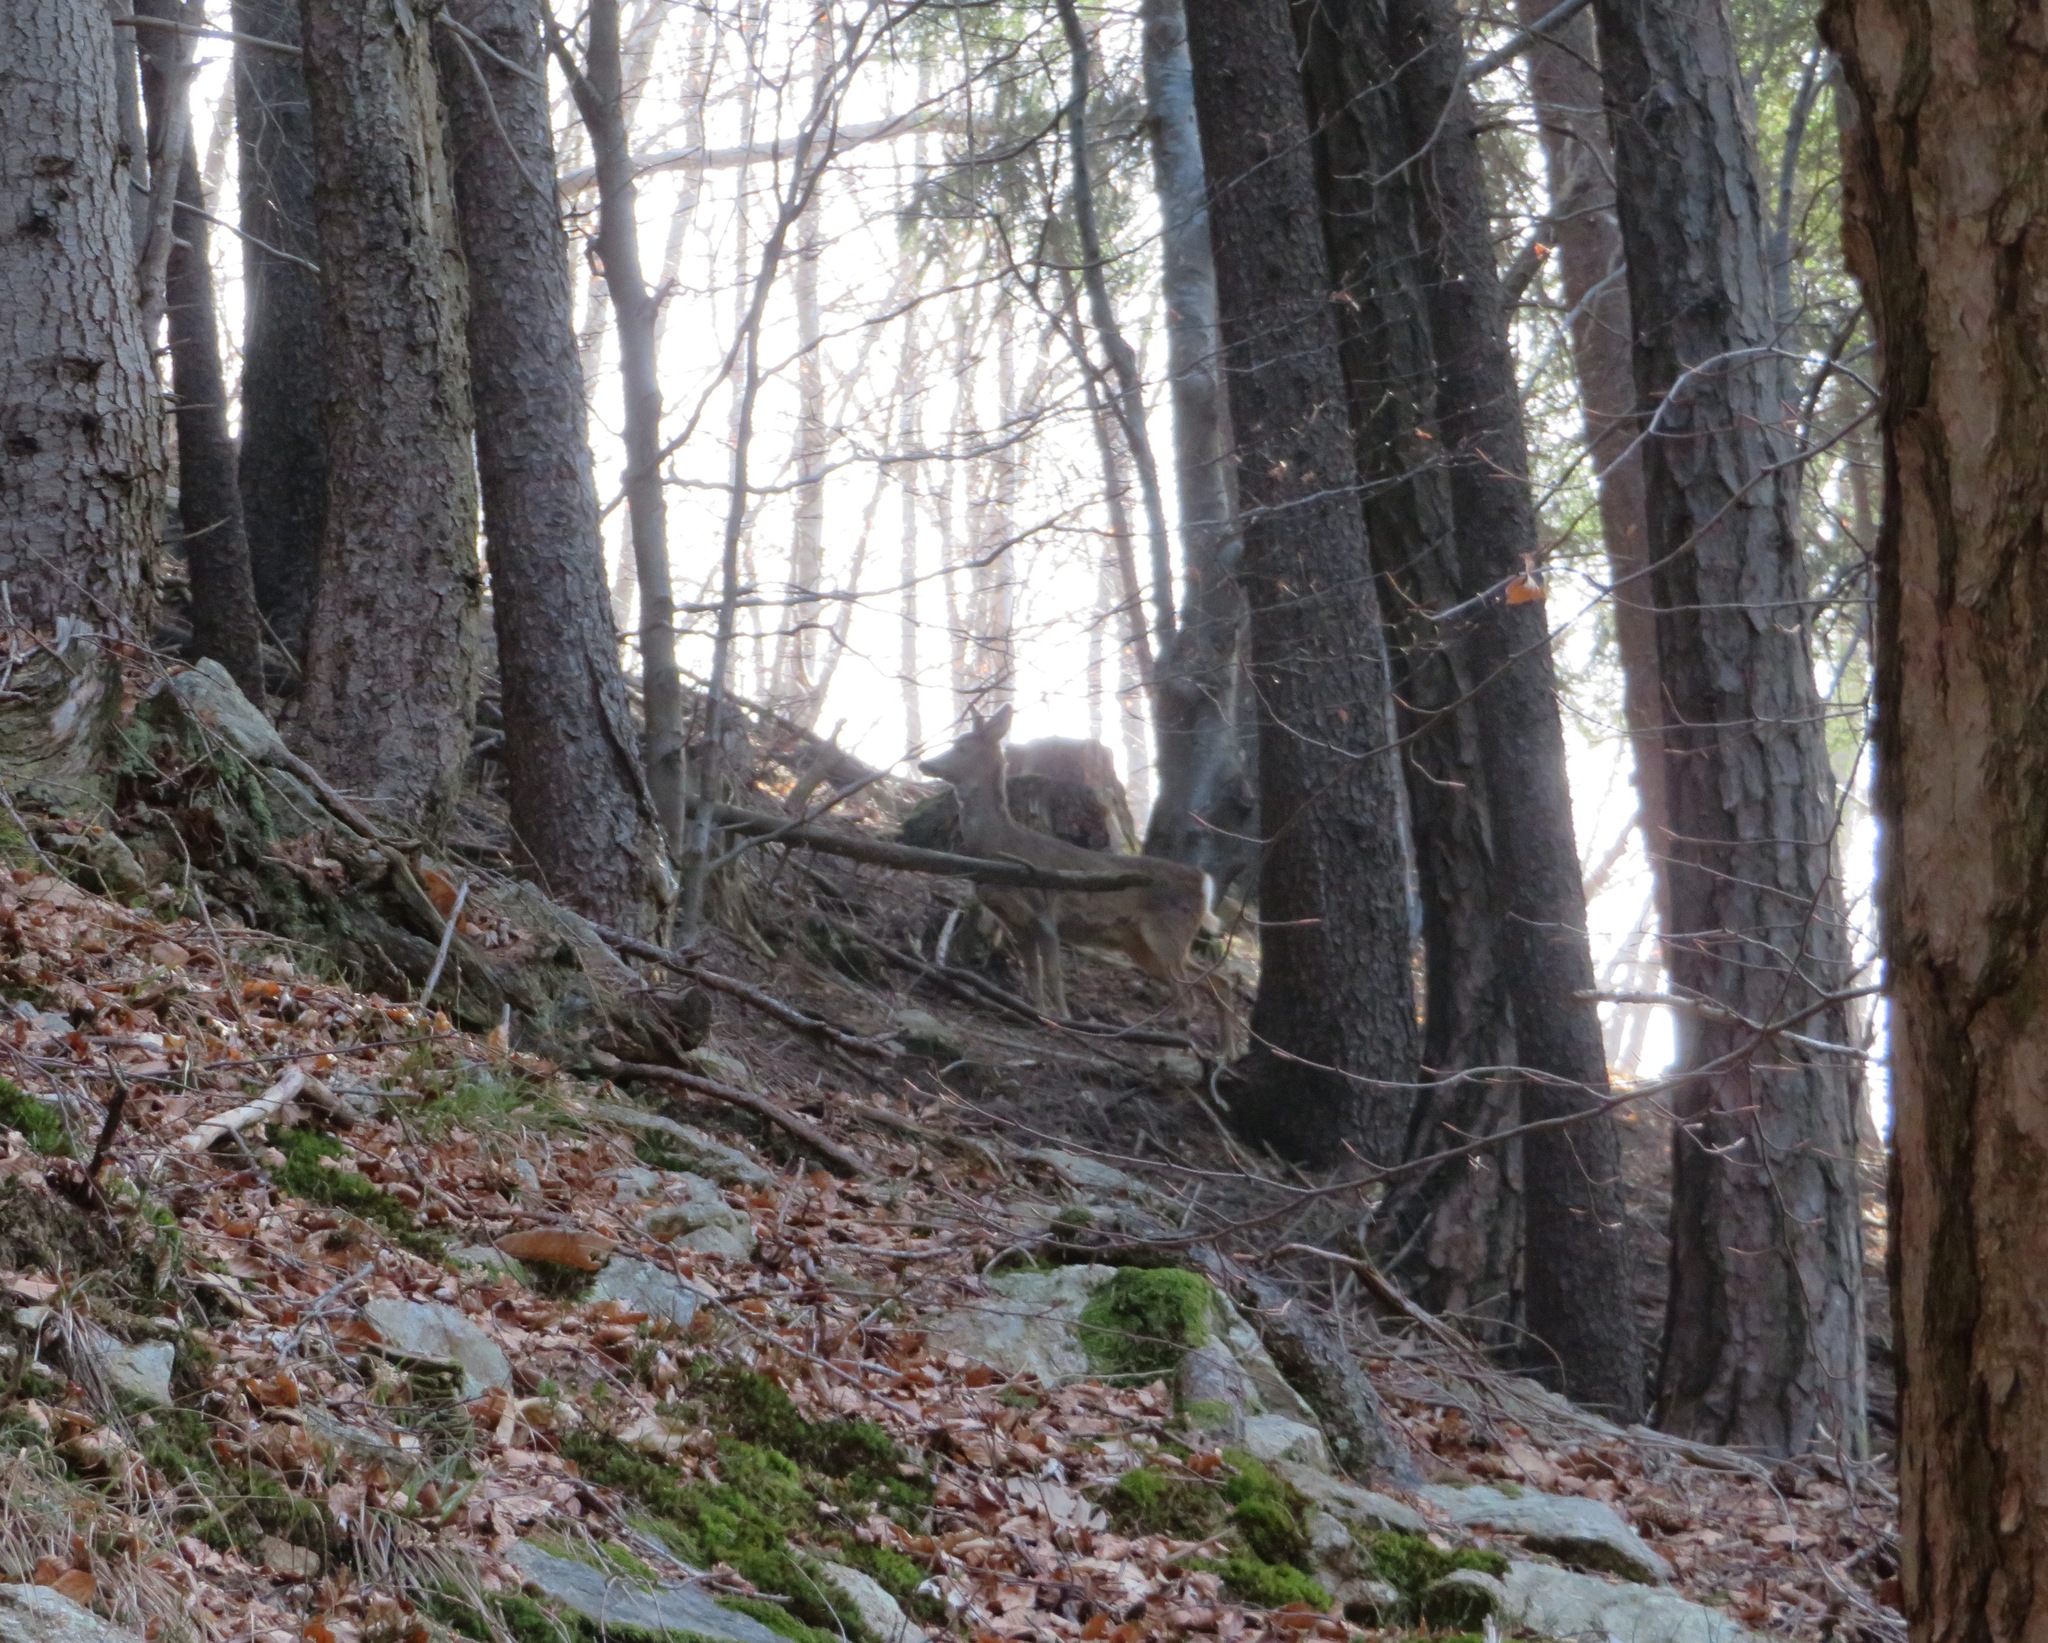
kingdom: Animalia
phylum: Chordata
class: Mammalia
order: Artiodactyla
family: Cervidae
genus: Capreolus
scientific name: Capreolus capreolus
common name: Western roe deer
